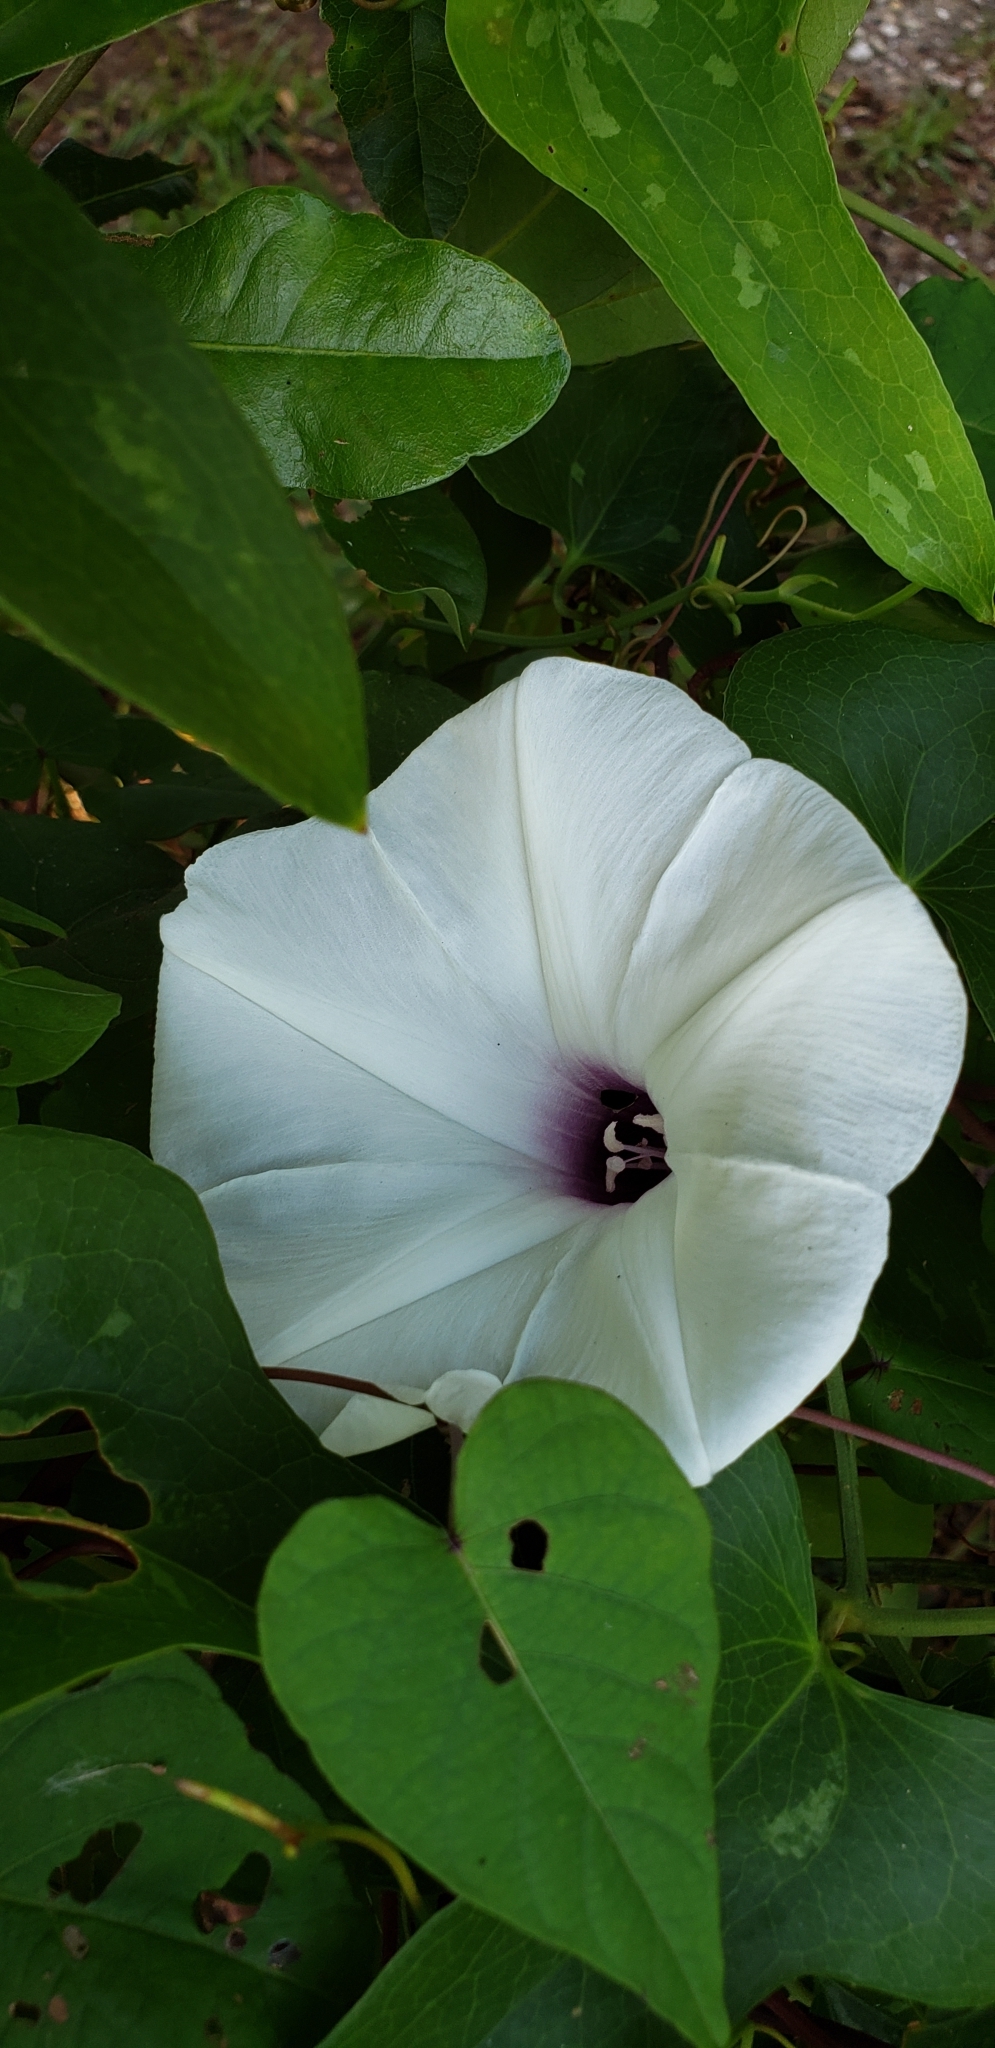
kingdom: Plantae
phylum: Tracheophyta
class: Magnoliopsida
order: Solanales
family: Convolvulaceae
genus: Ipomoea
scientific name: Ipomoea pandurata
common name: Man-of-the-earth
